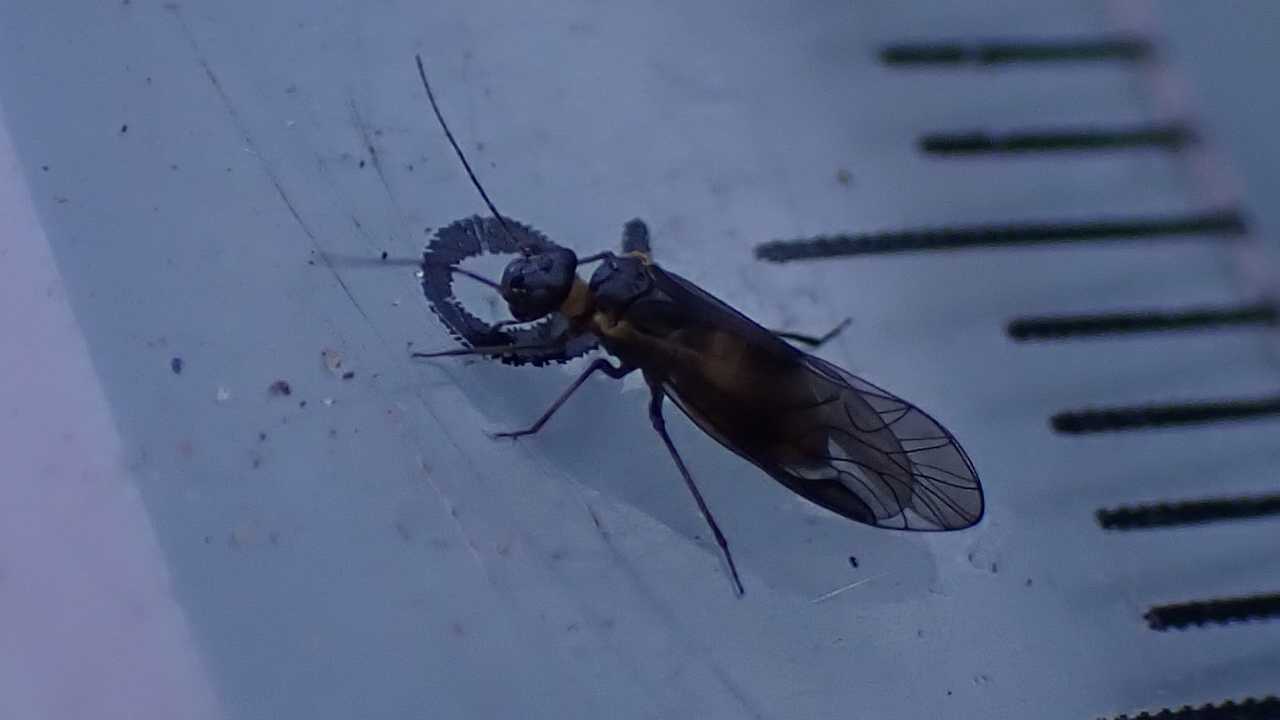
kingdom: Animalia
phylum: Arthropoda
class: Insecta
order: Psocodea
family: Elipsocidae
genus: Elipsocus
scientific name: Elipsocus hyalinus
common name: Bark lice
